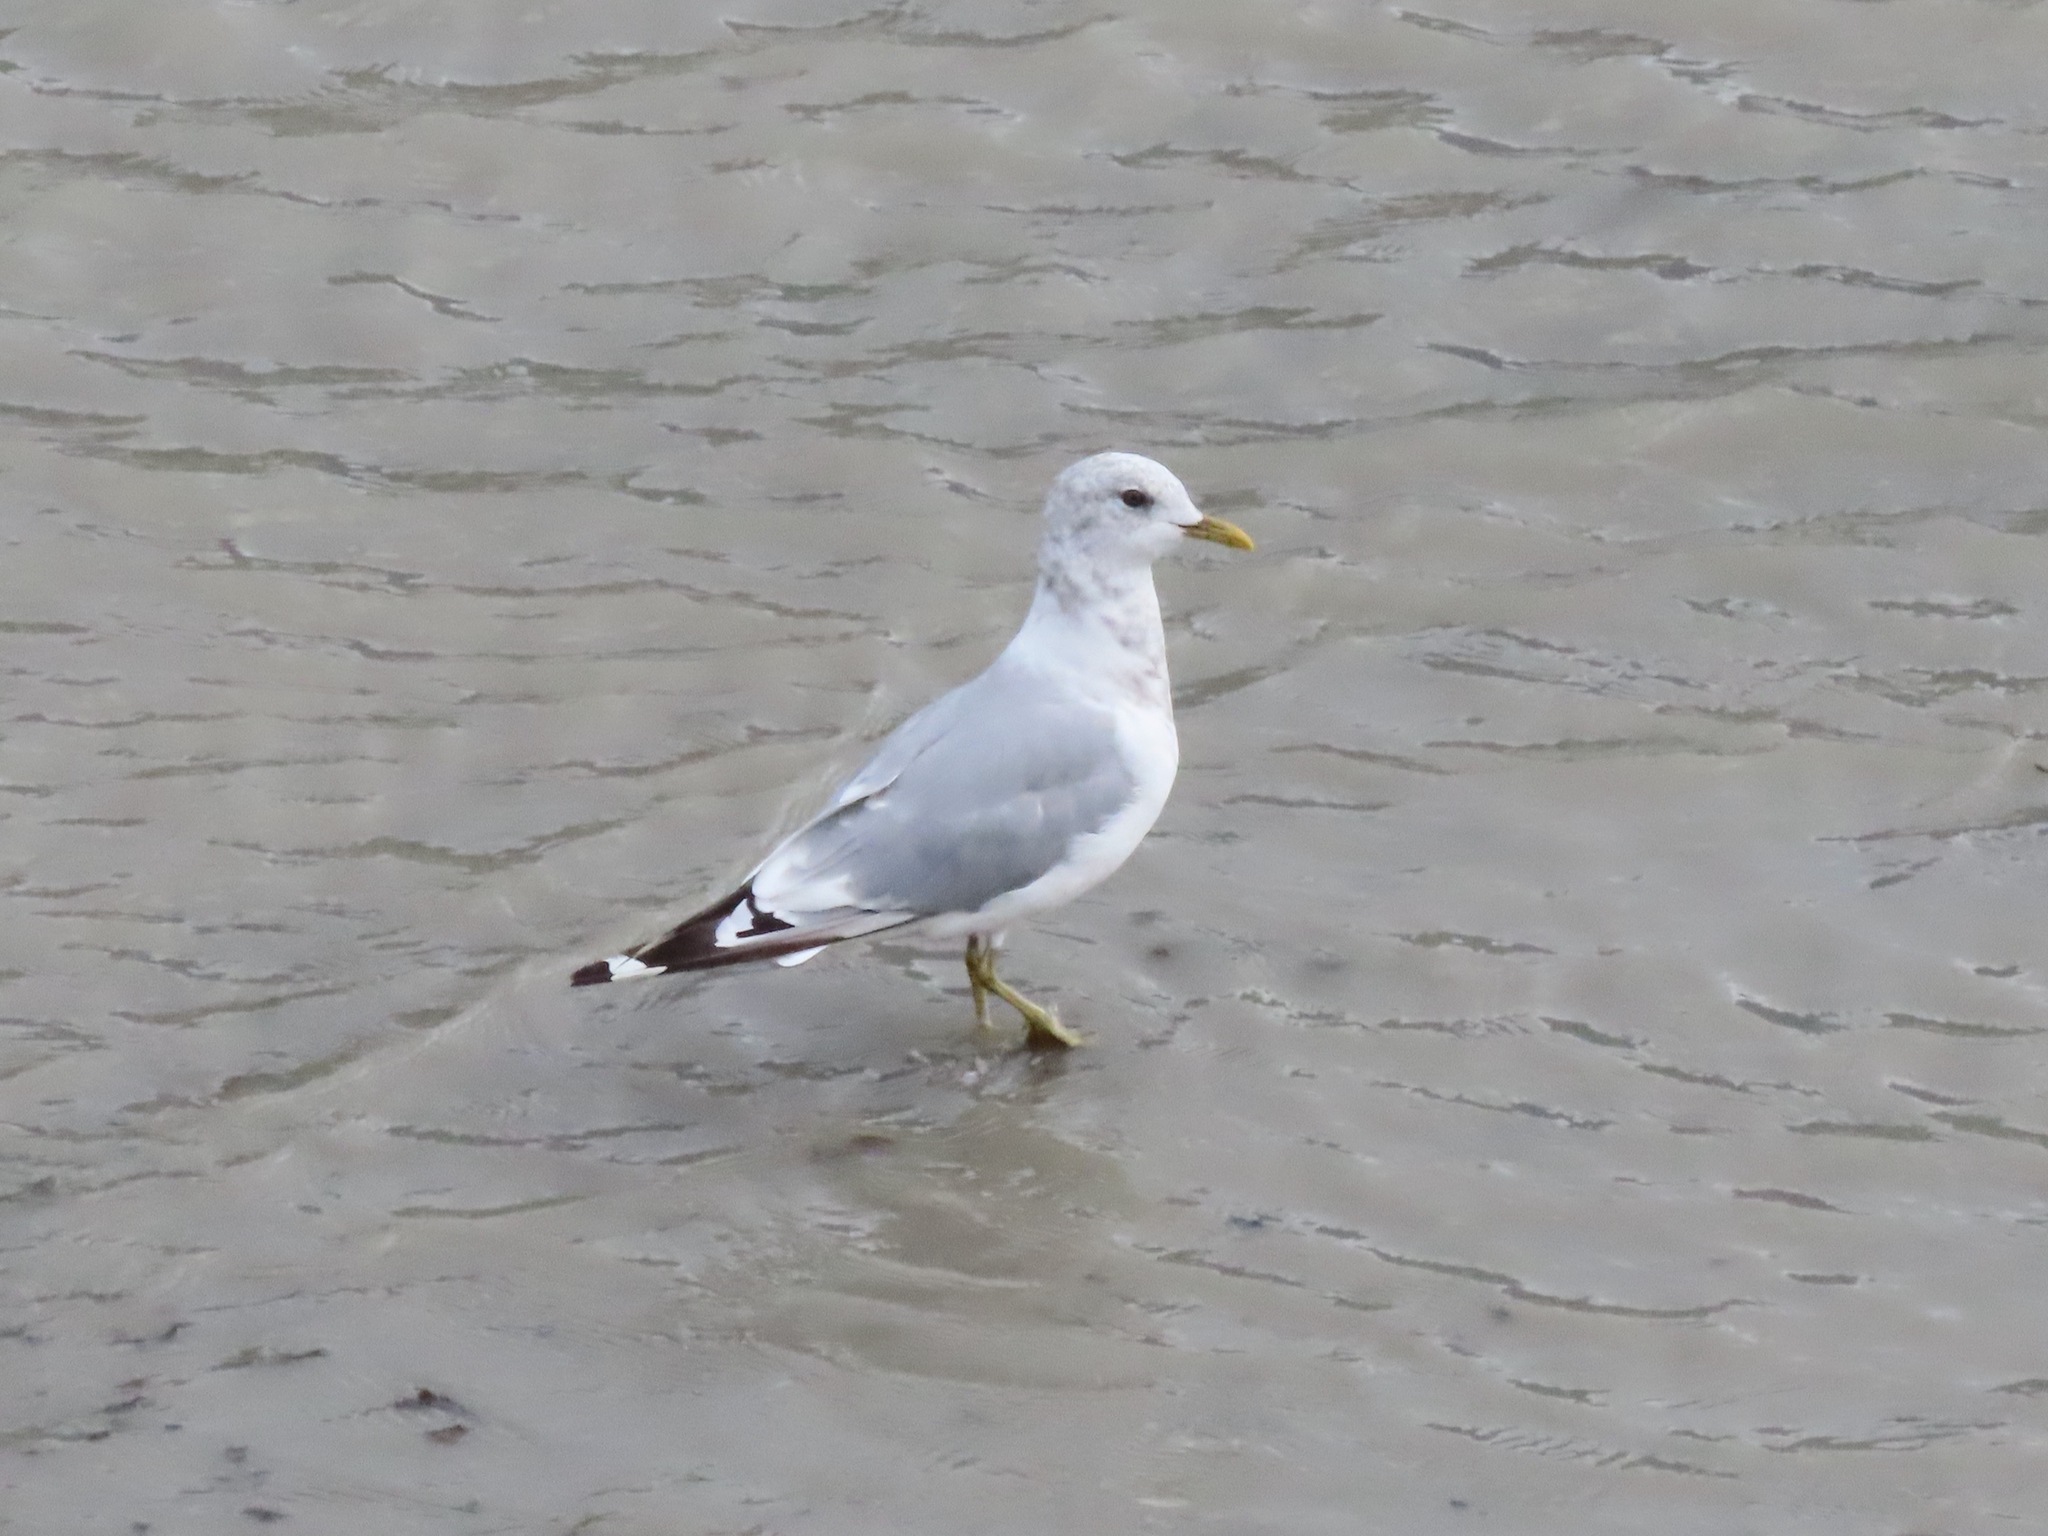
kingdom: Animalia
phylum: Chordata
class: Aves
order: Charadriiformes
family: Laridae
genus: Larus
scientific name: Larus brachyrhynchus
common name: Short-billed gull
